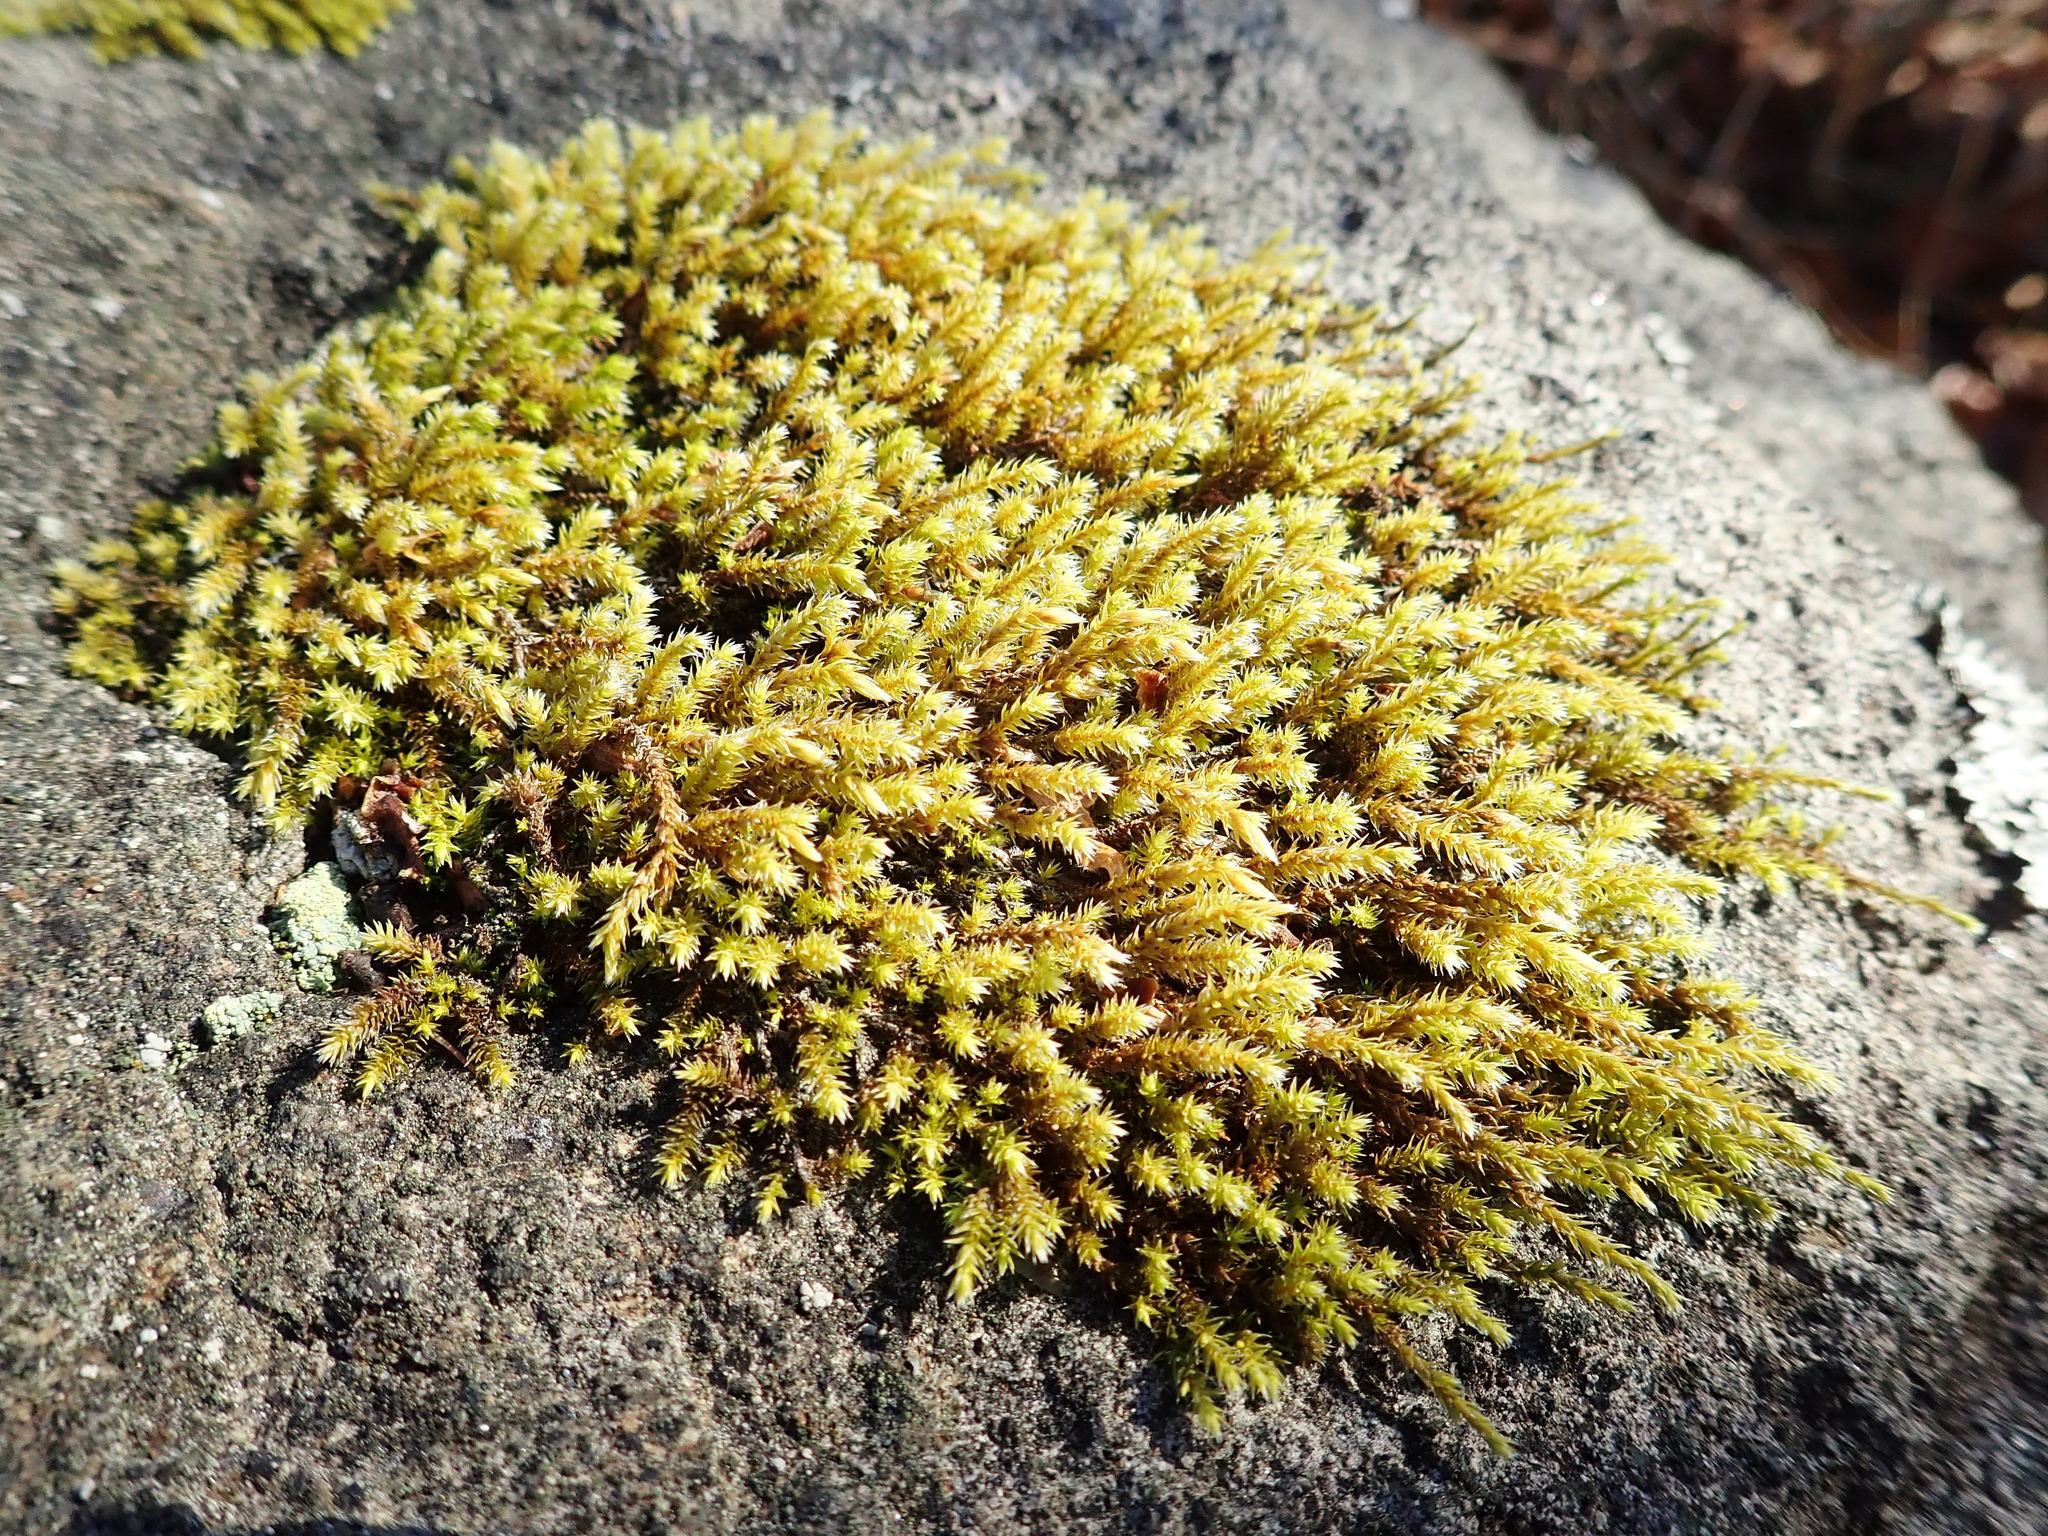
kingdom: Plantae
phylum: Bryophyta
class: Bryopsida
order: Hedwigiales
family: Hedwigiaceae
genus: Hedwigia
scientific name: Hedwigia ciliata
